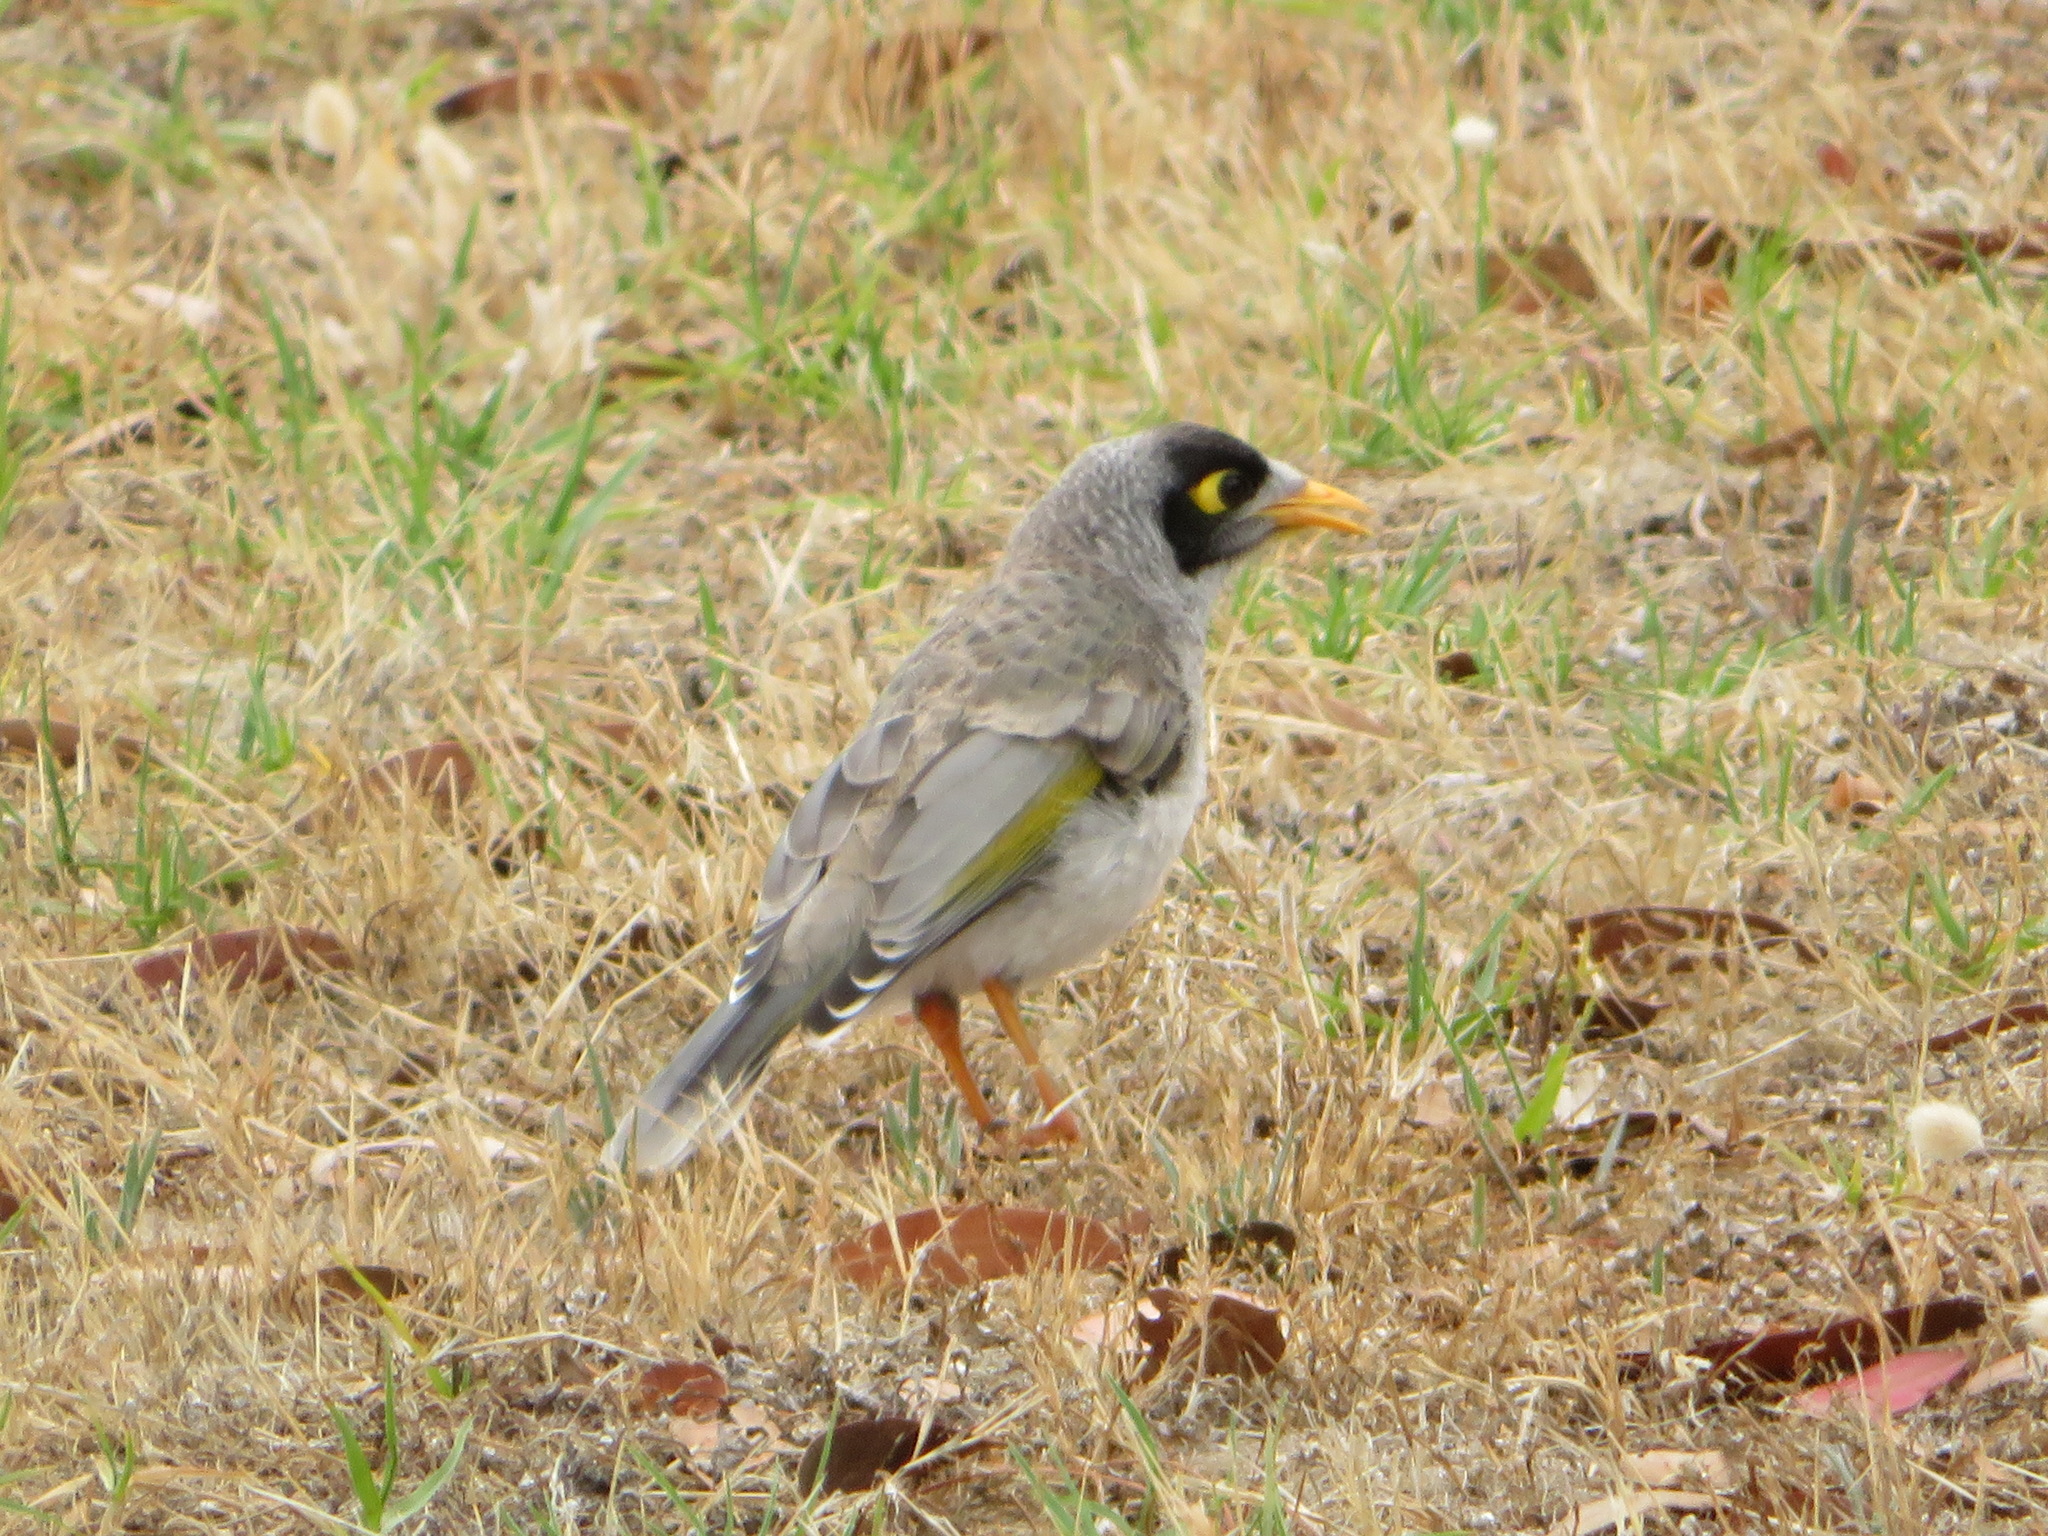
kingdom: Animalia
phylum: Chordata
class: Aves
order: Passeriformes
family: Meliphagidae
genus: Manorina
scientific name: Manorina melanocephala
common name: Noisy miner
